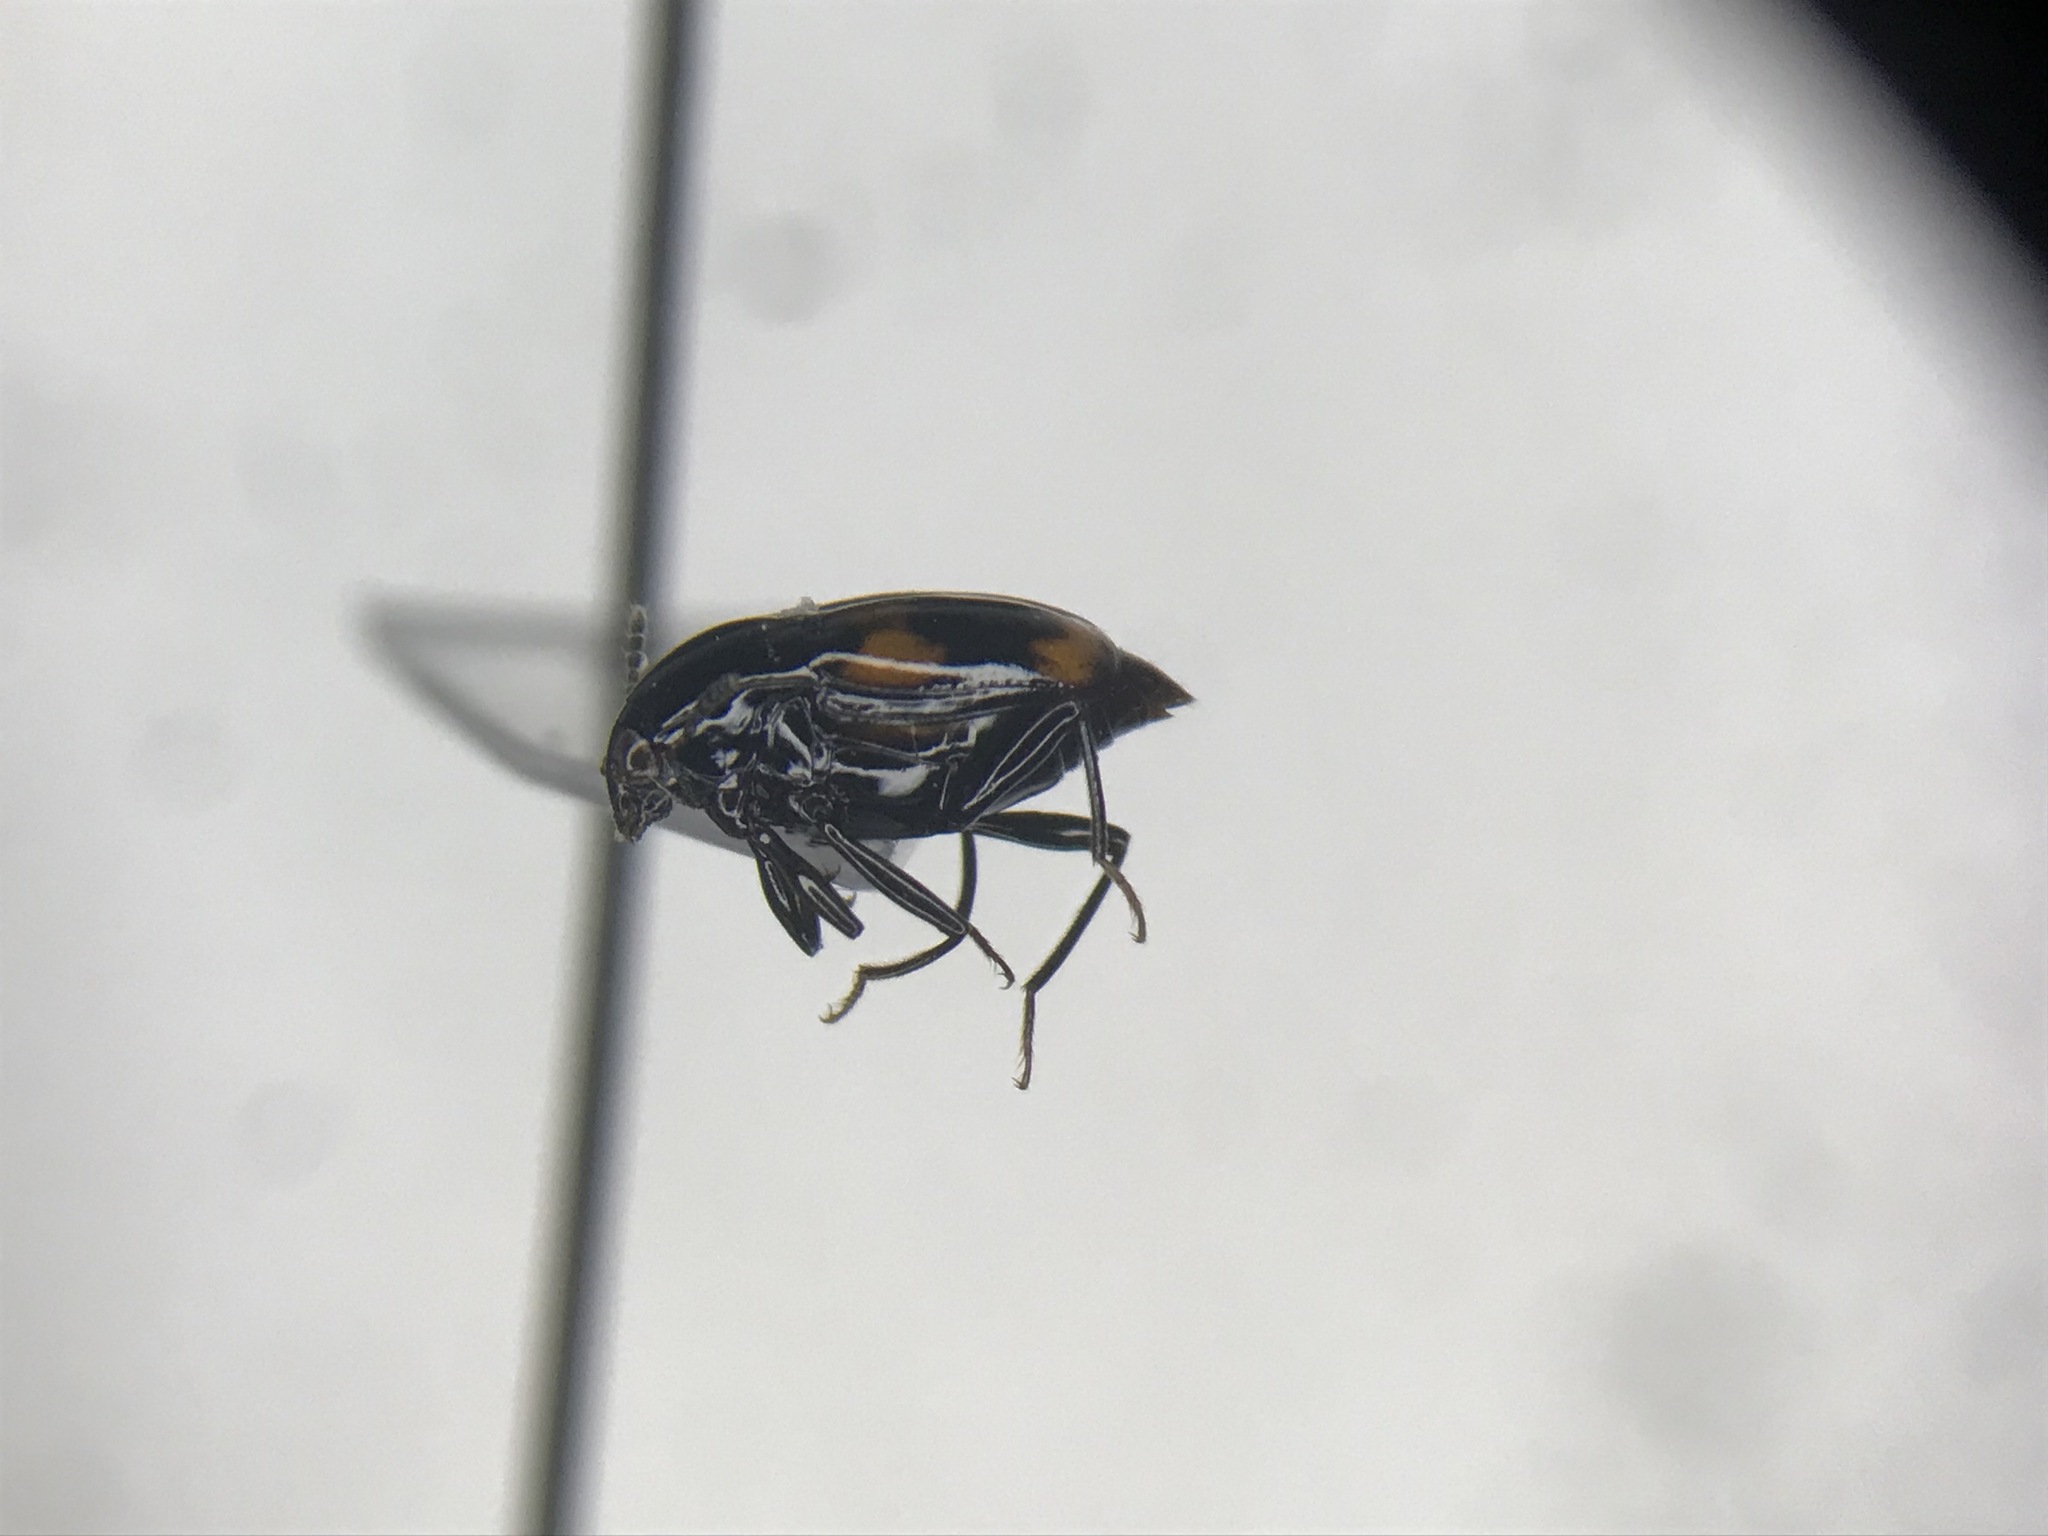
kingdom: Animalia
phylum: Arthropoda
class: Insecta
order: Coleoptera
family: Staphylinidae
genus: Scaphidium
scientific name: Scaphidium quadriguttatum
